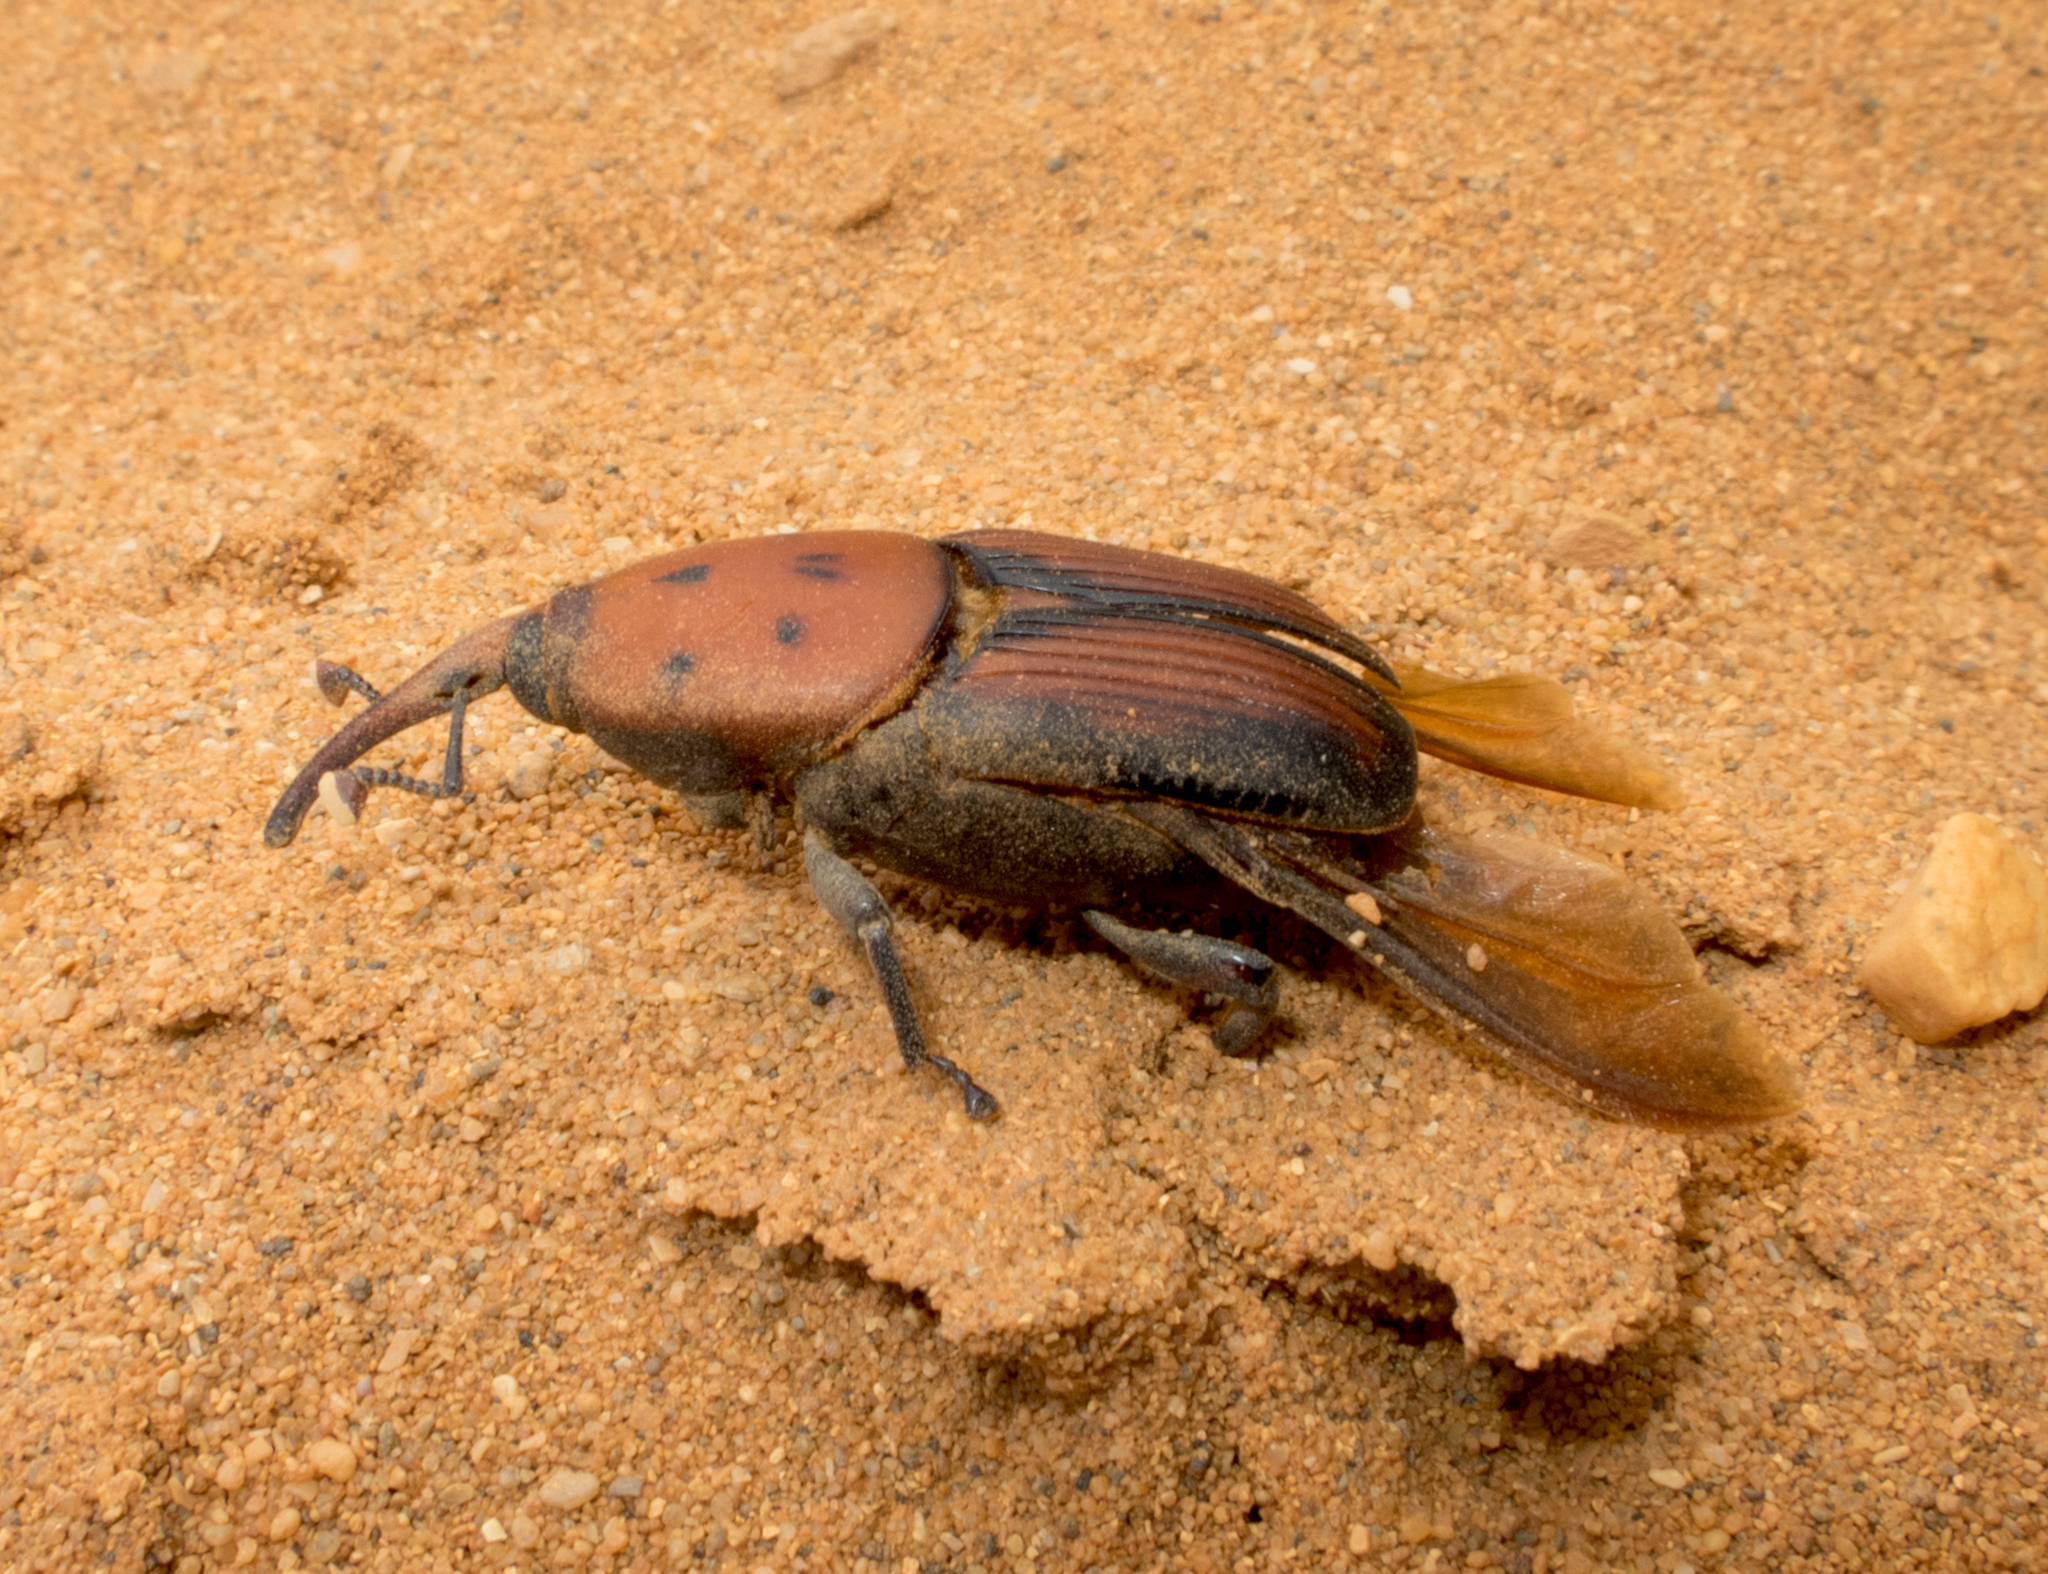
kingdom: Animalia
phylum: Arthropoda
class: Insecta
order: Coleoptera
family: Dryophthoridae
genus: Rhynchophorus
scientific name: Rhynchophorus ferrugineus
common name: Red palm weevil
